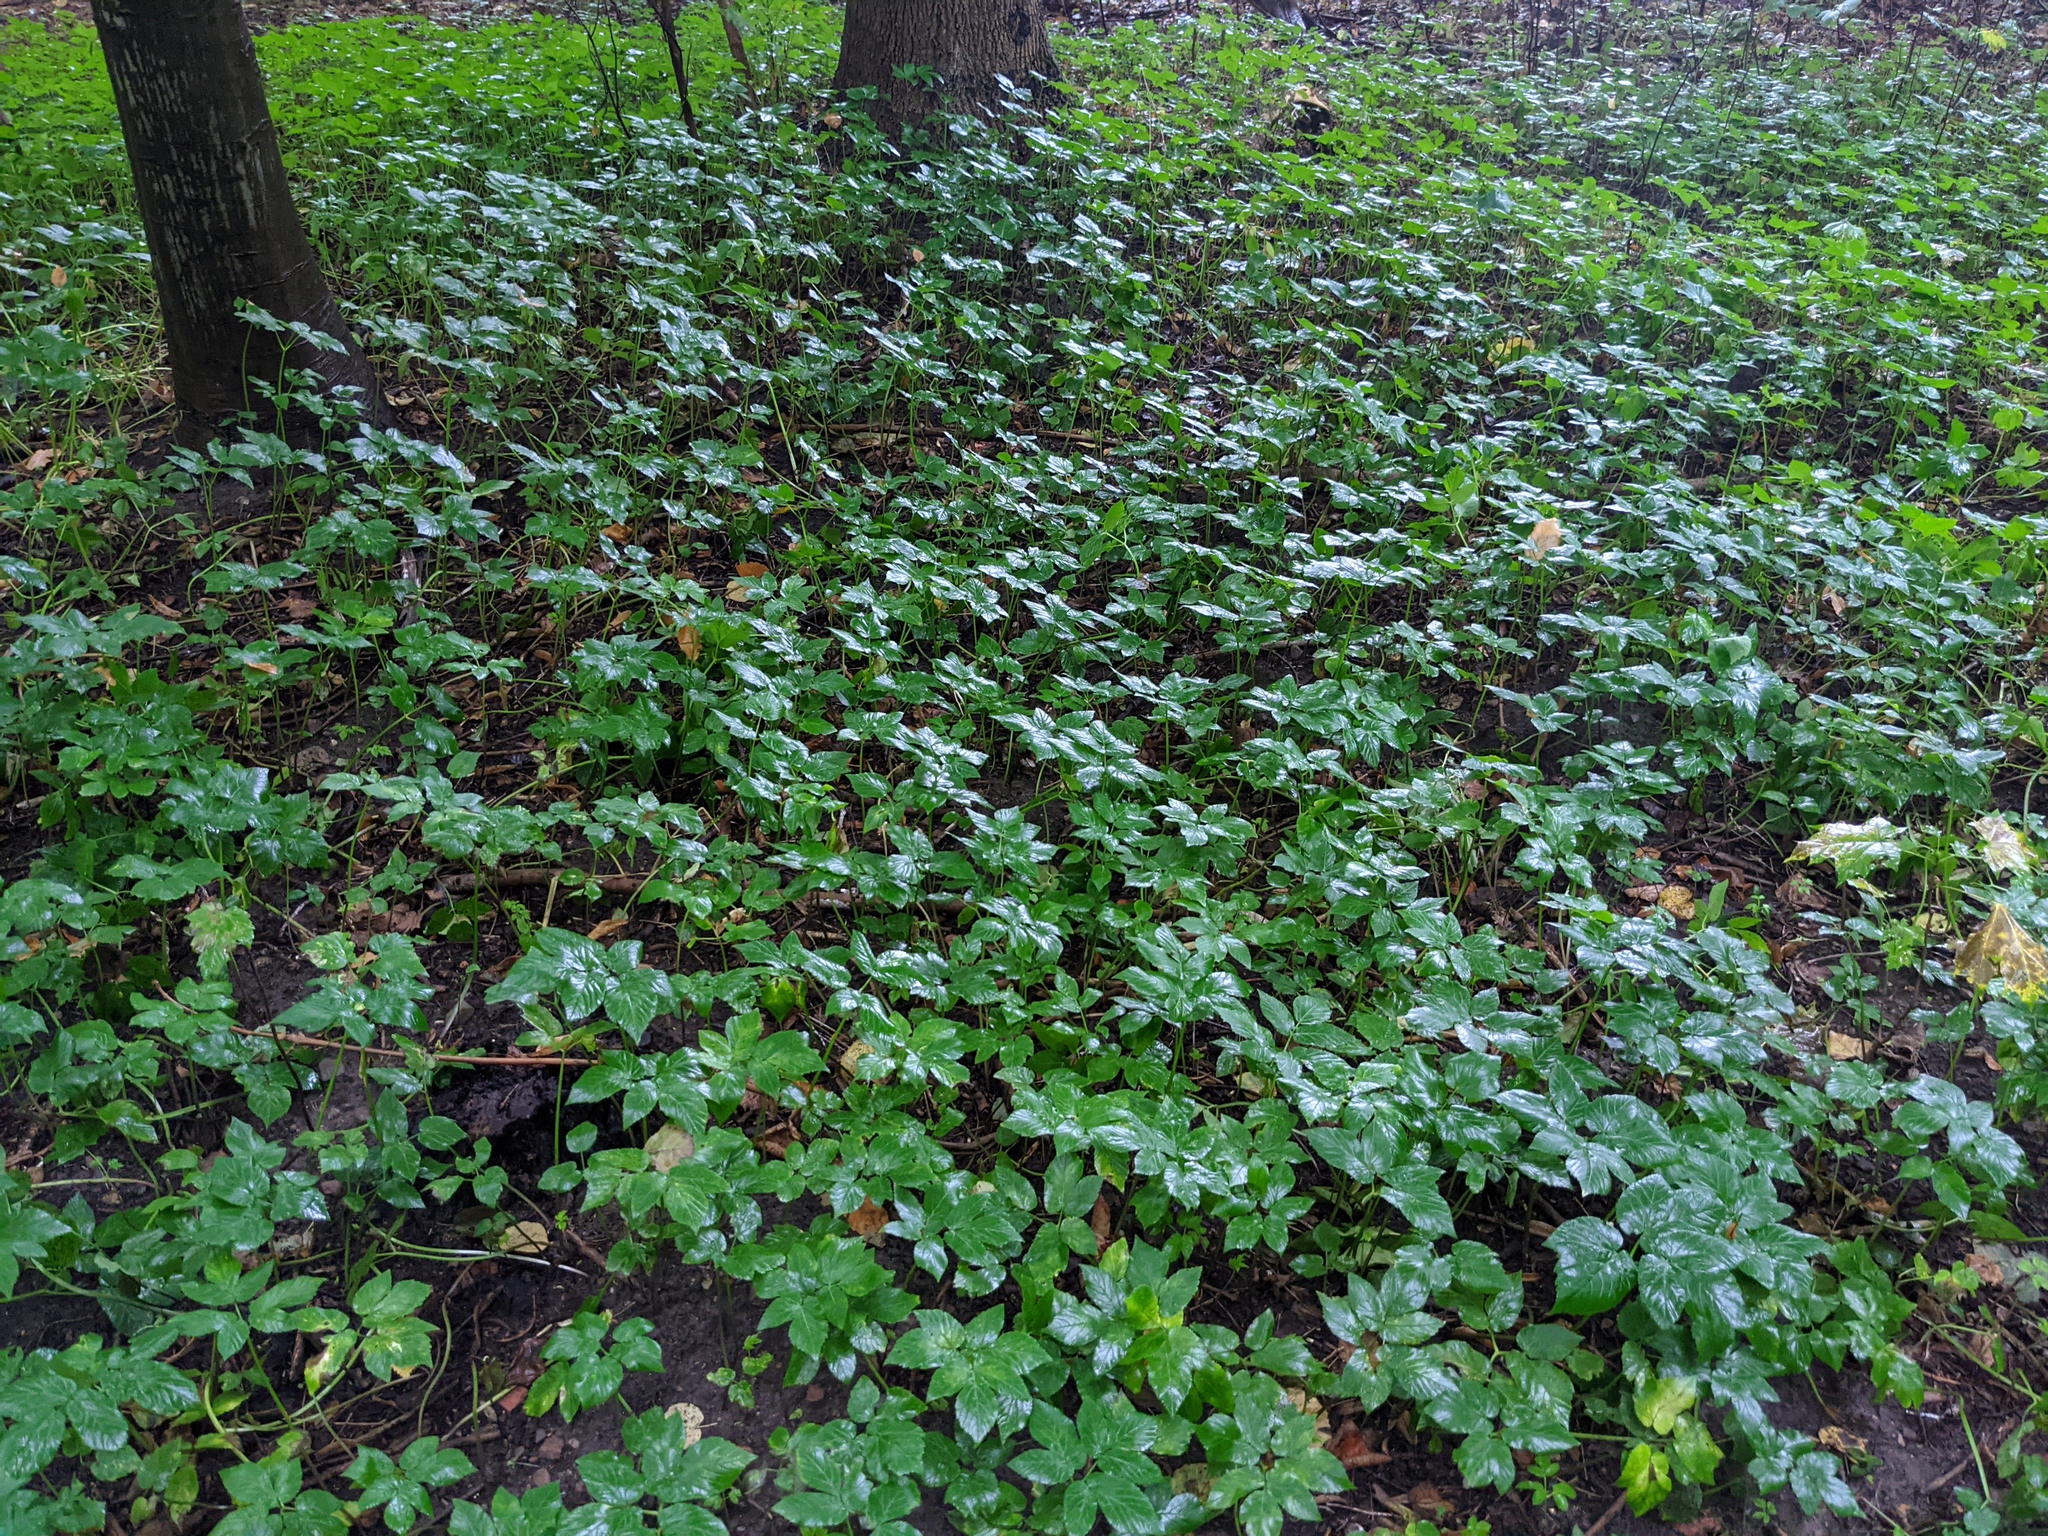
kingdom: Plantae
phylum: Tracheophyta
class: Magnoliopsida
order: Apiales
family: Apiaceae
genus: Aegopodium
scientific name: Aegopodium podagraria
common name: Ground-elder
